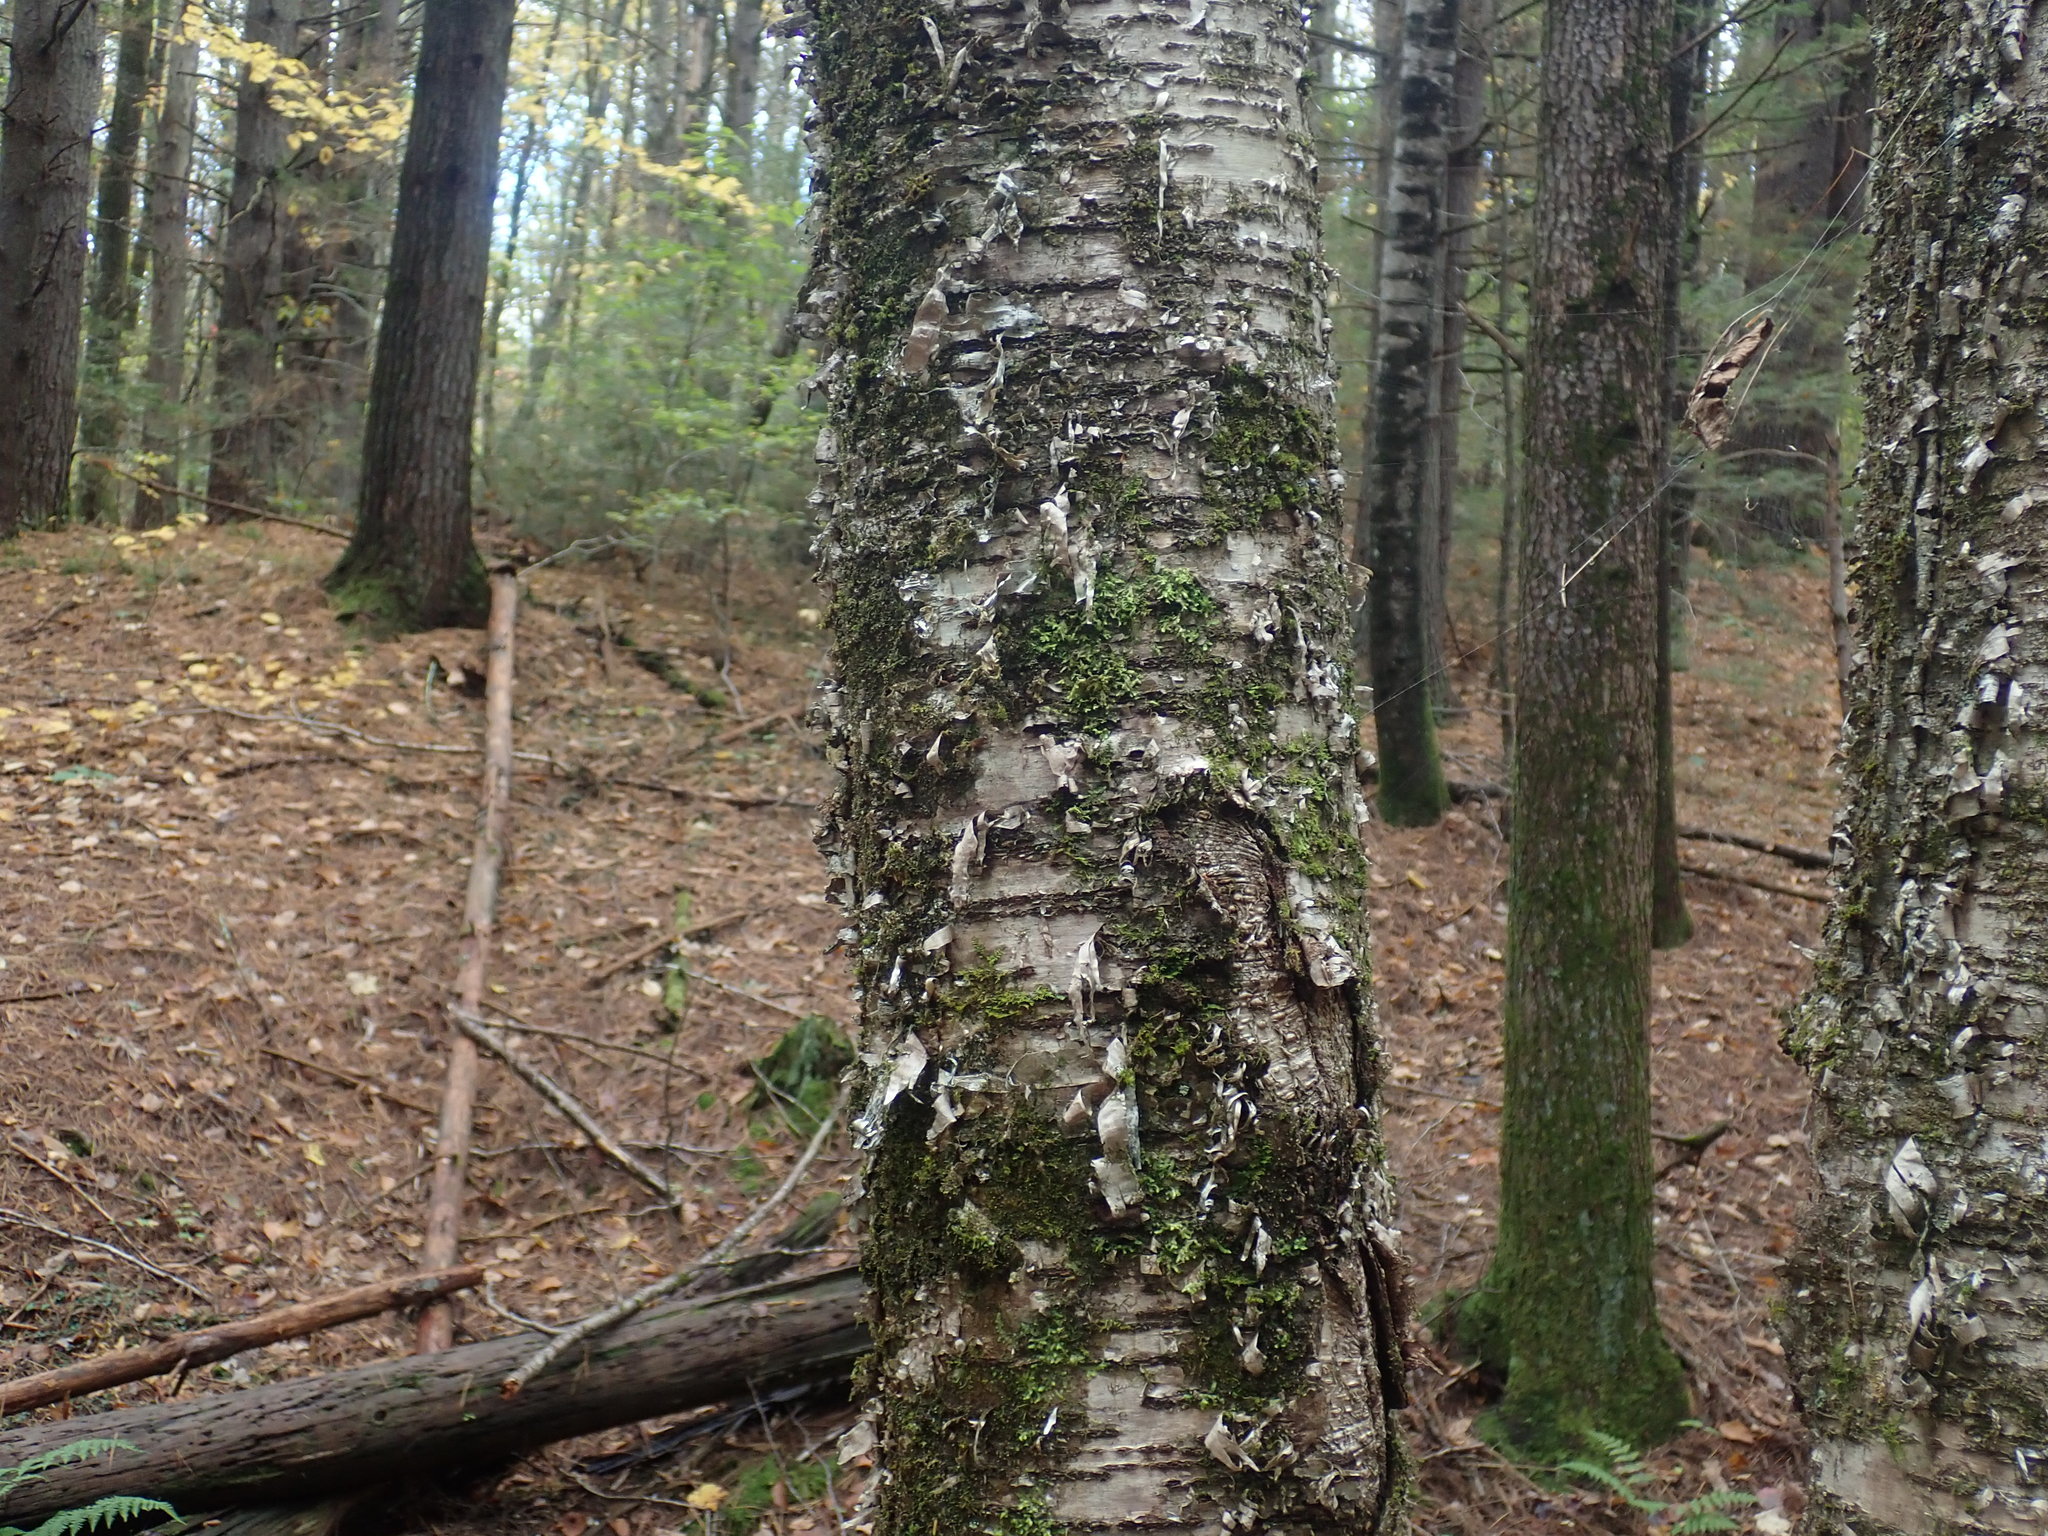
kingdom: Plantae
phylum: Tracheophyta
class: Magnoliopsida
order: Fagales
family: Betulaceae
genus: Betula
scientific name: Betula alleghaniensis
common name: Yellow birch
